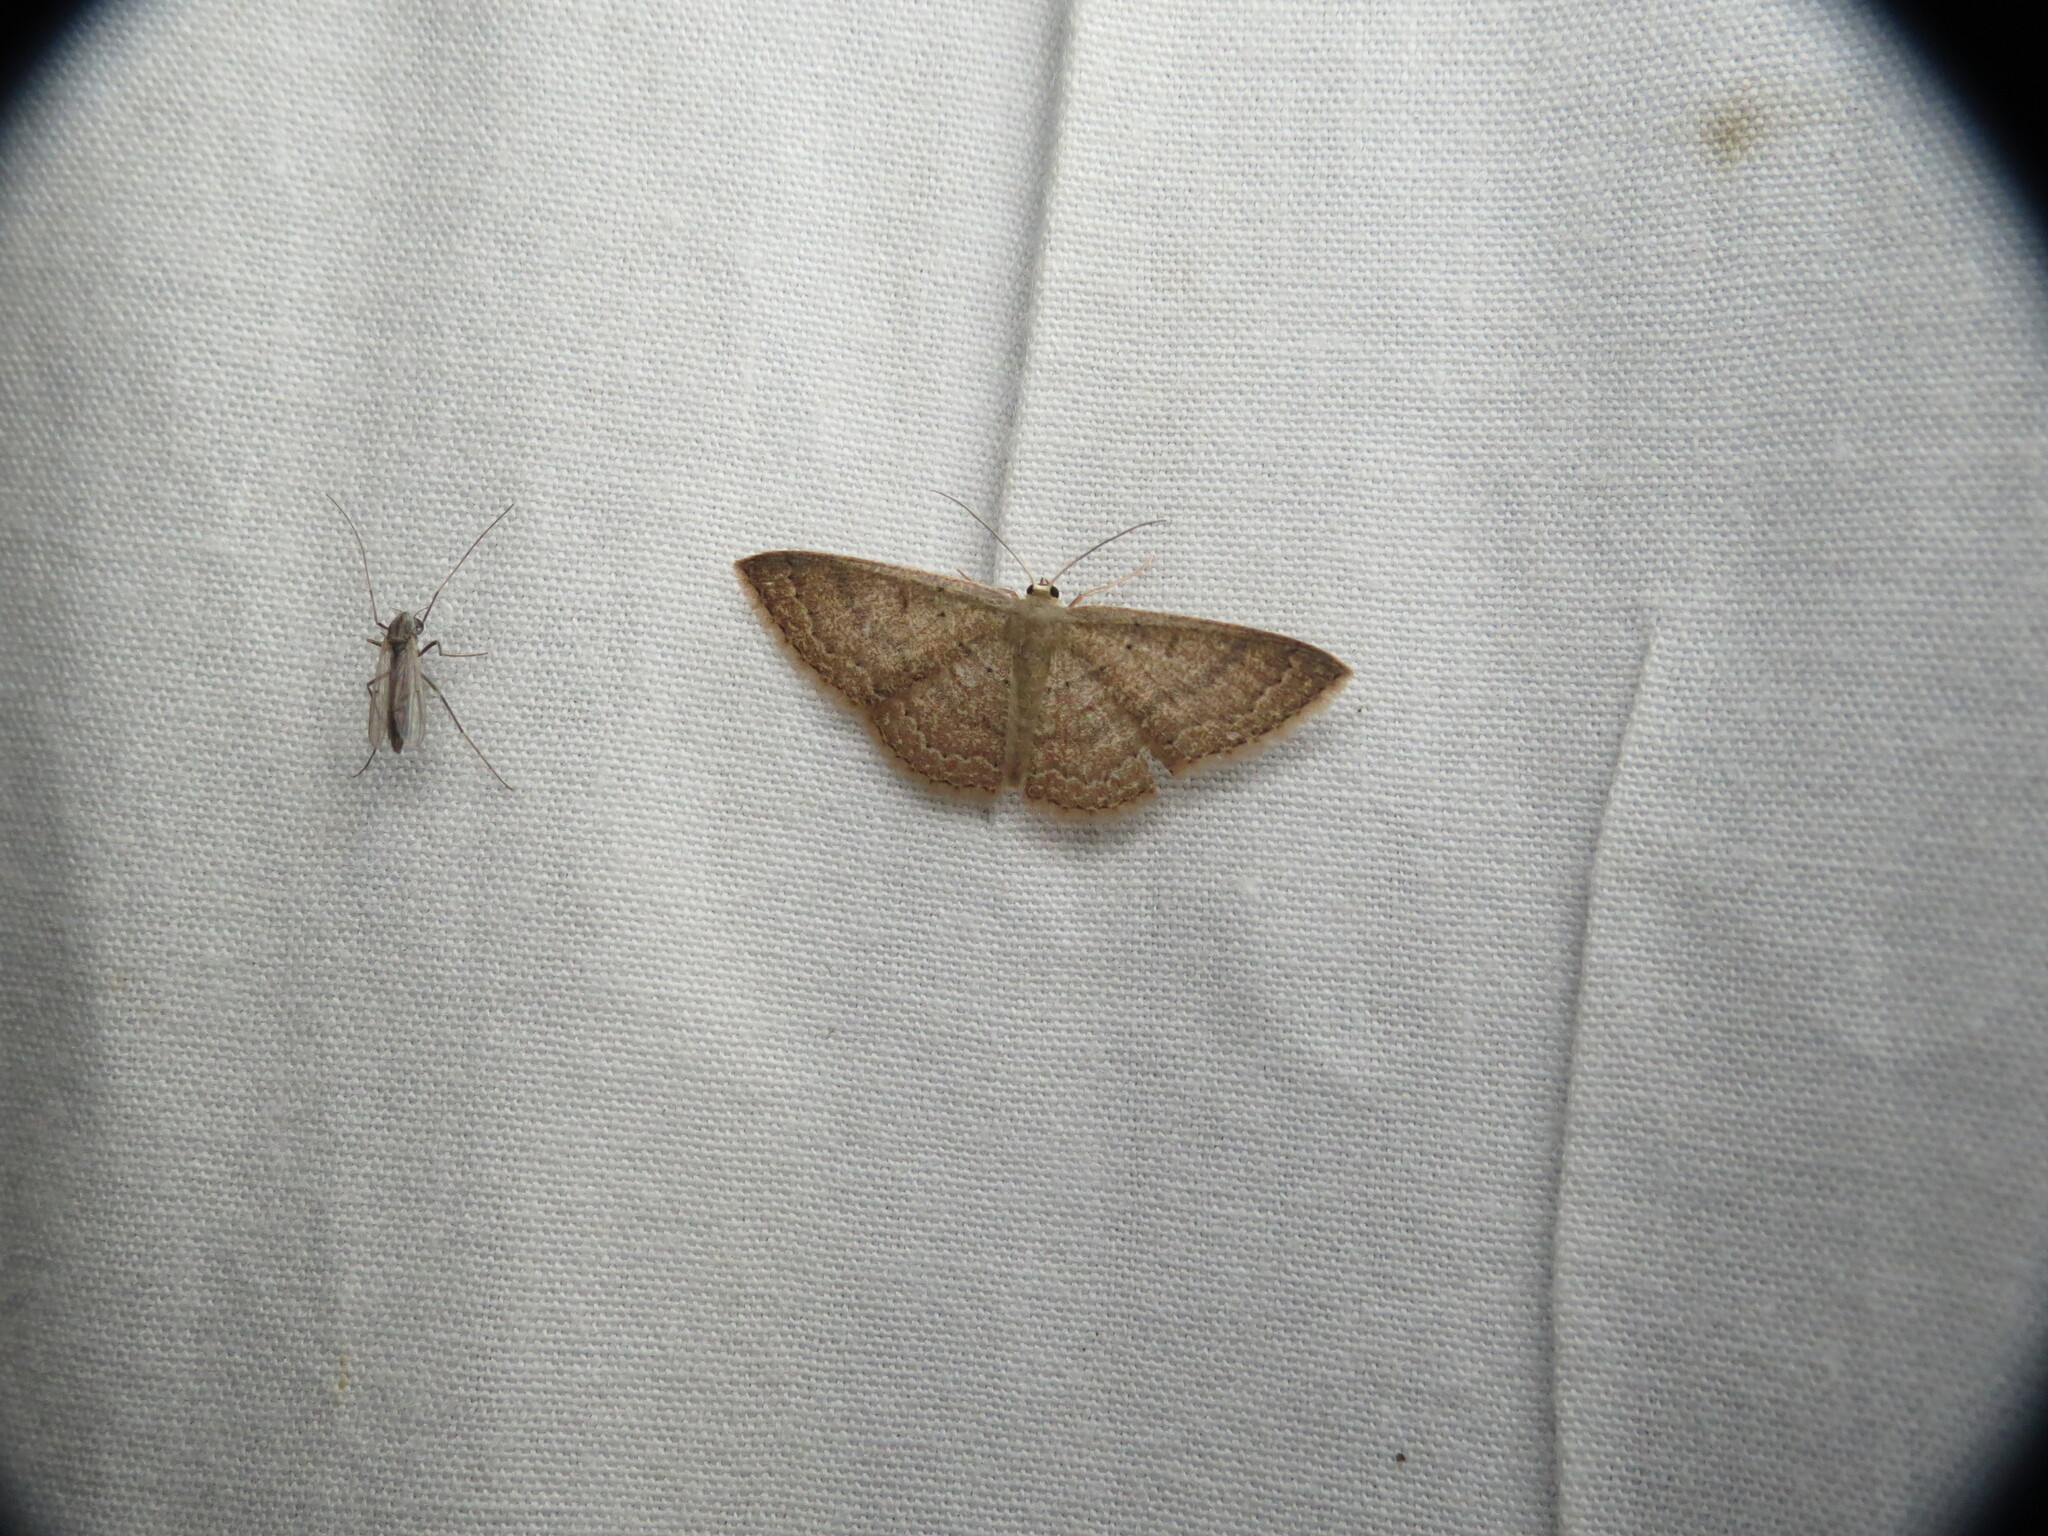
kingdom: Animalia
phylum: Arthropoda
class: Insecta
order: Lepidoptera
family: Geometridae
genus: Pleuroprucha
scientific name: Pleuroprucha insulsaria
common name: Common tan wave
